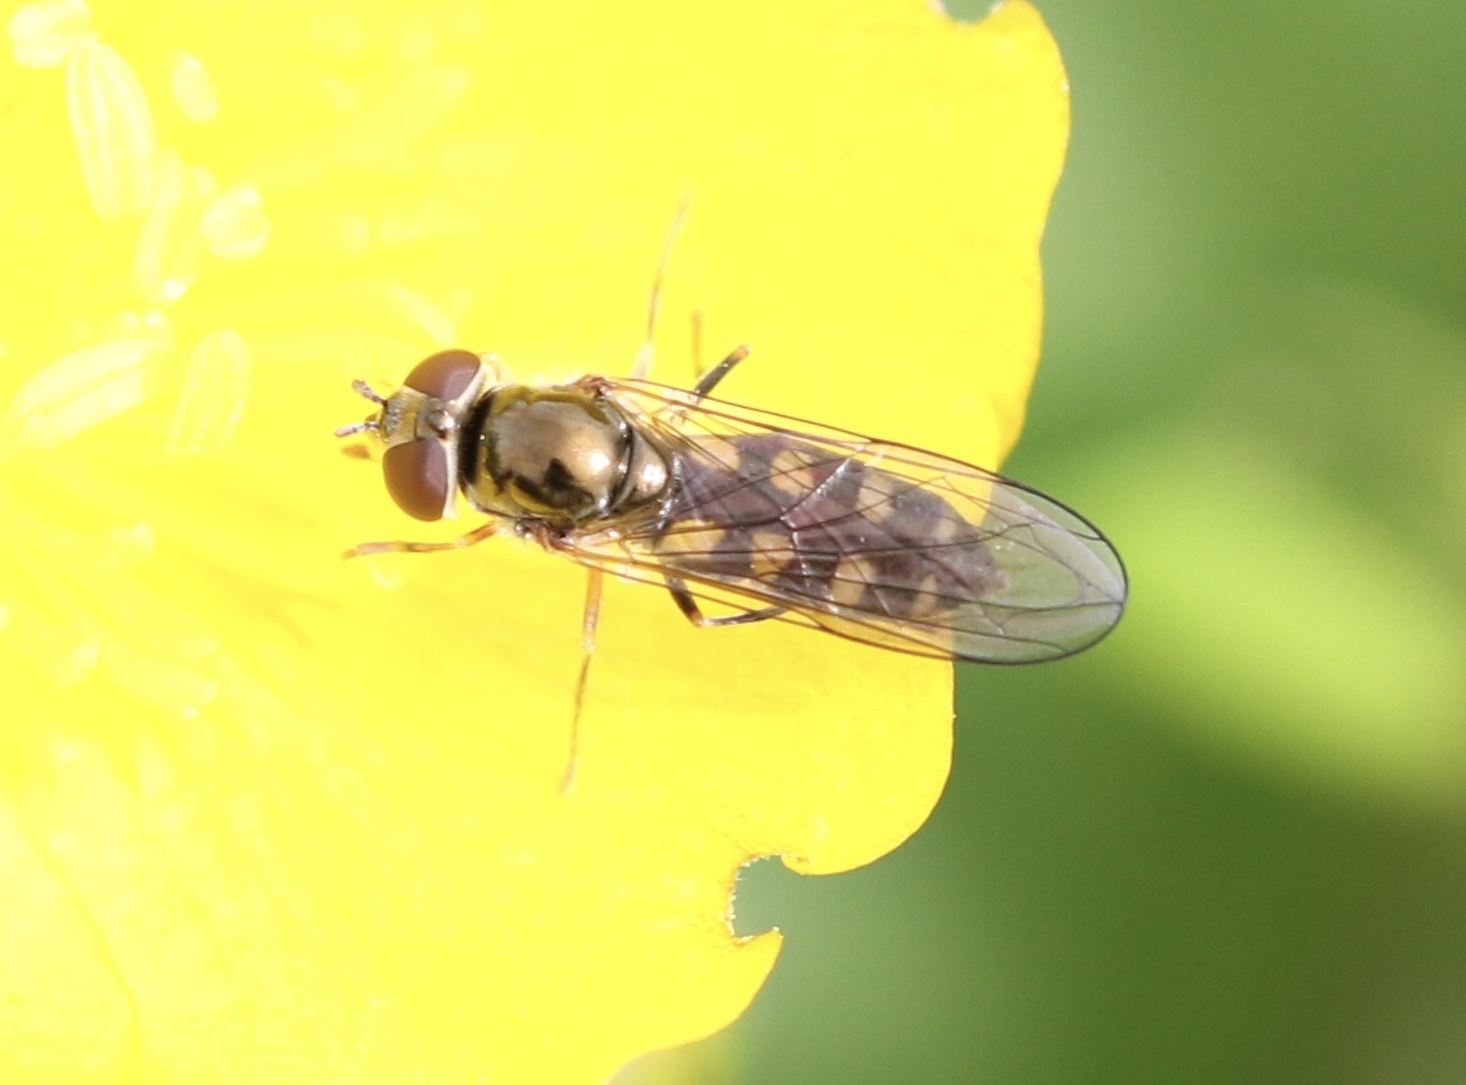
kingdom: Animalia
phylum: Arthropoda
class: Insecta
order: Diptera
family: Syrphidae
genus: Platycheirus
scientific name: Platycheirus peltatus
